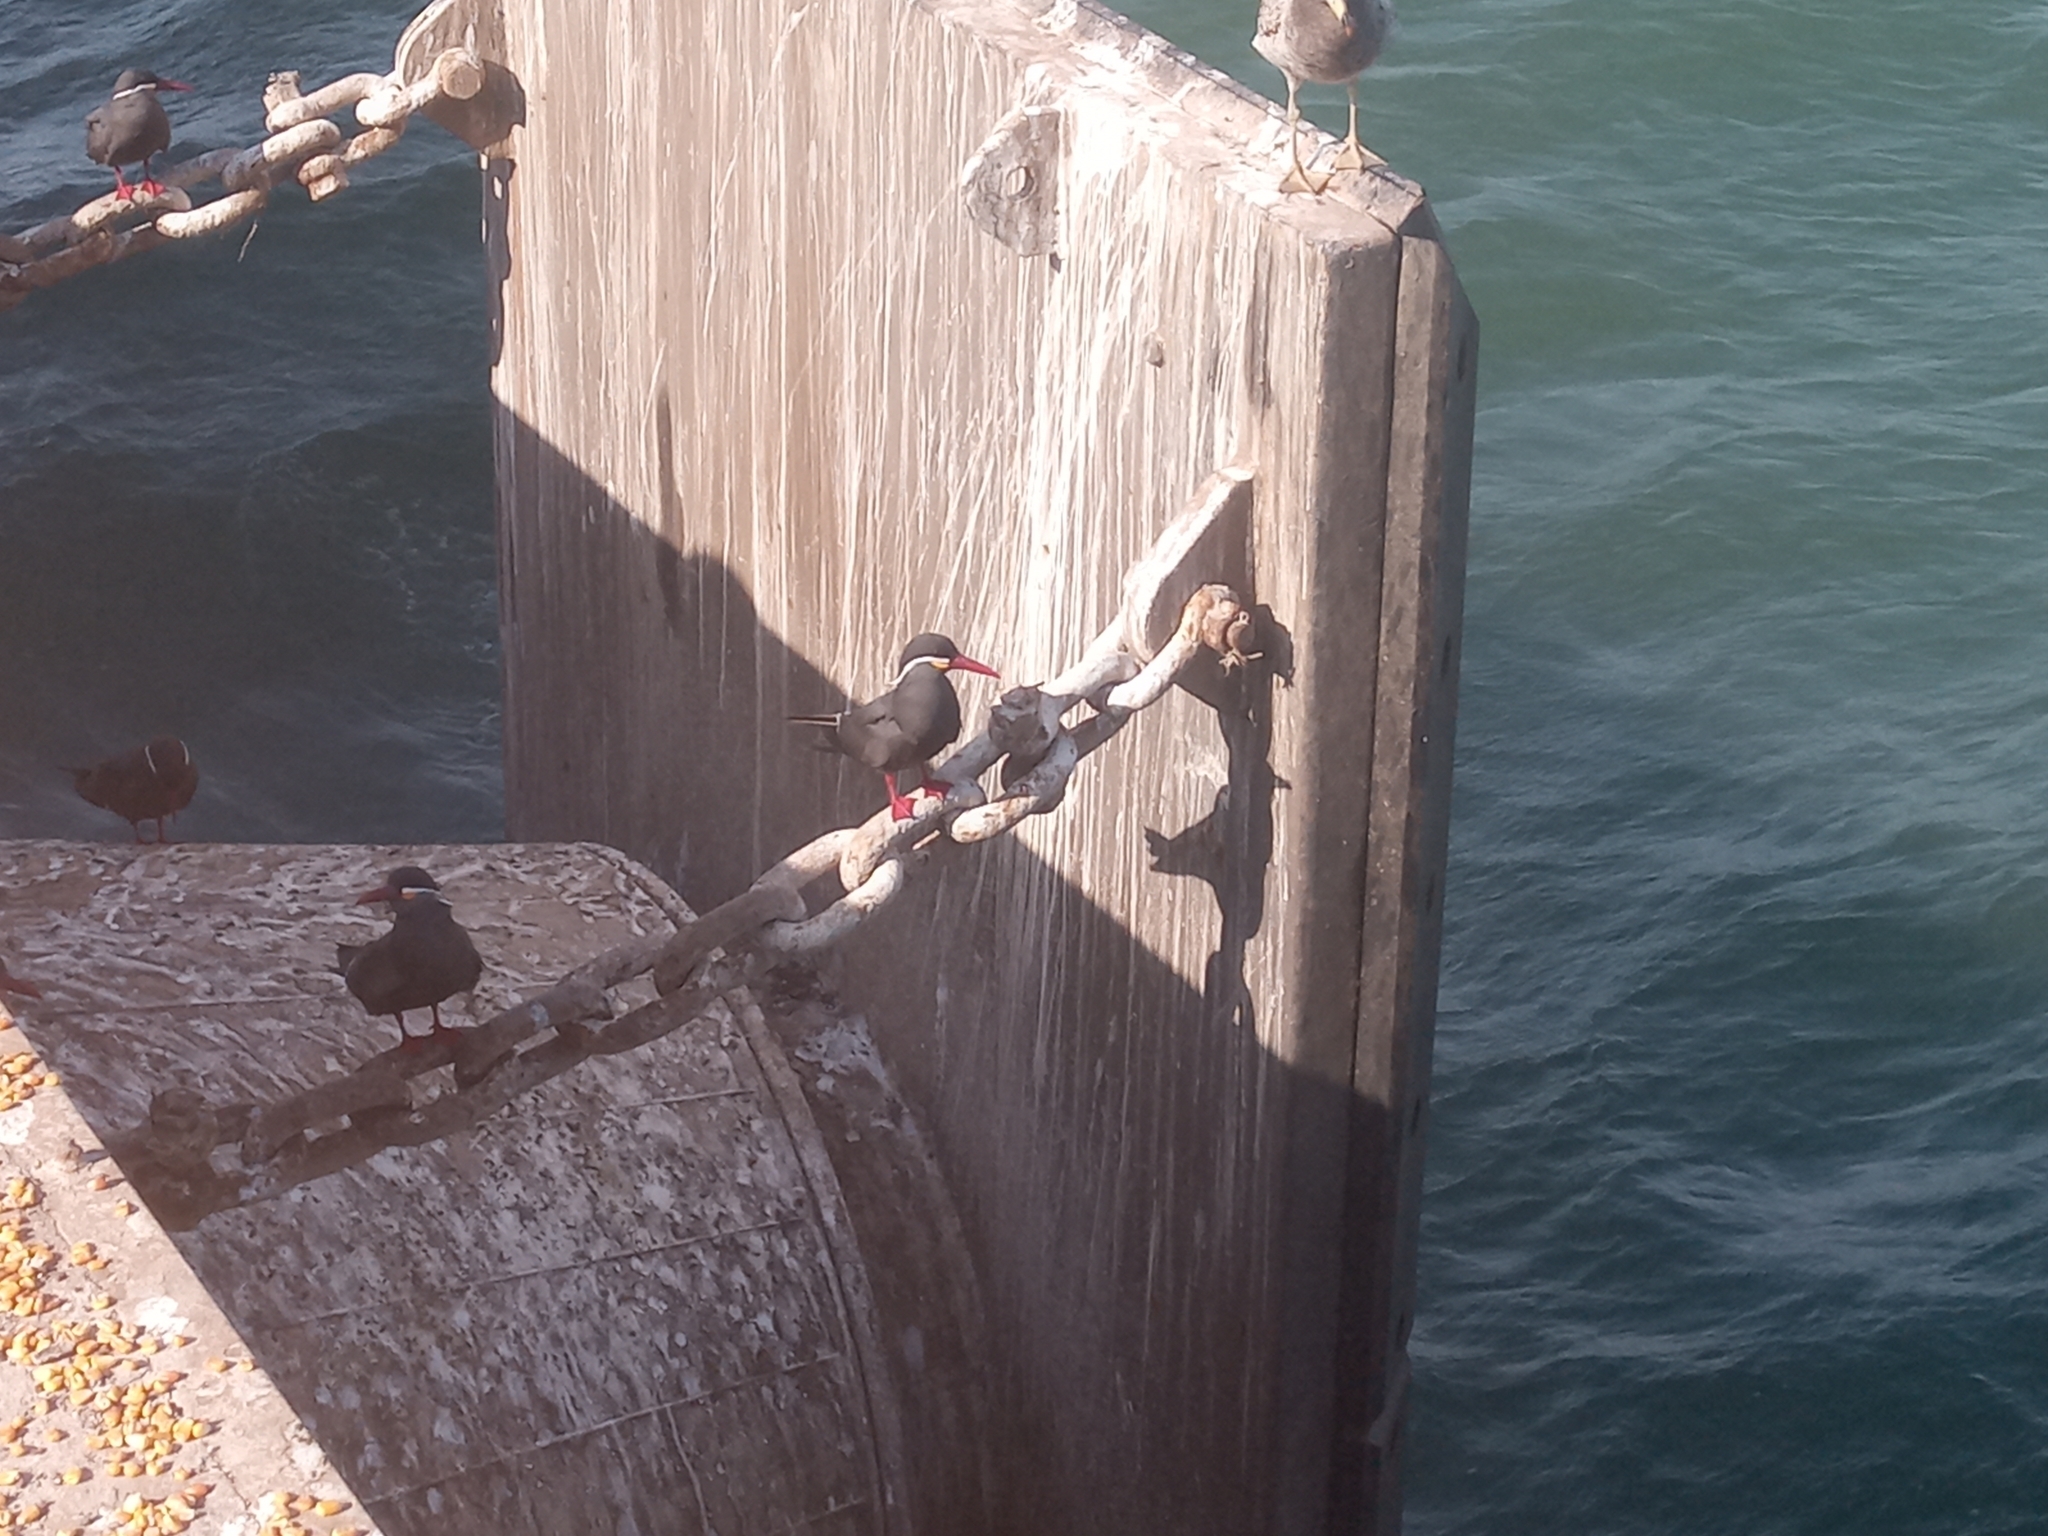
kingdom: Animalia
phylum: Chordata
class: Aves
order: Charadriiformes
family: Laridae
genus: Larosterna
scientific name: Larosterna inca
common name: Inca tern
